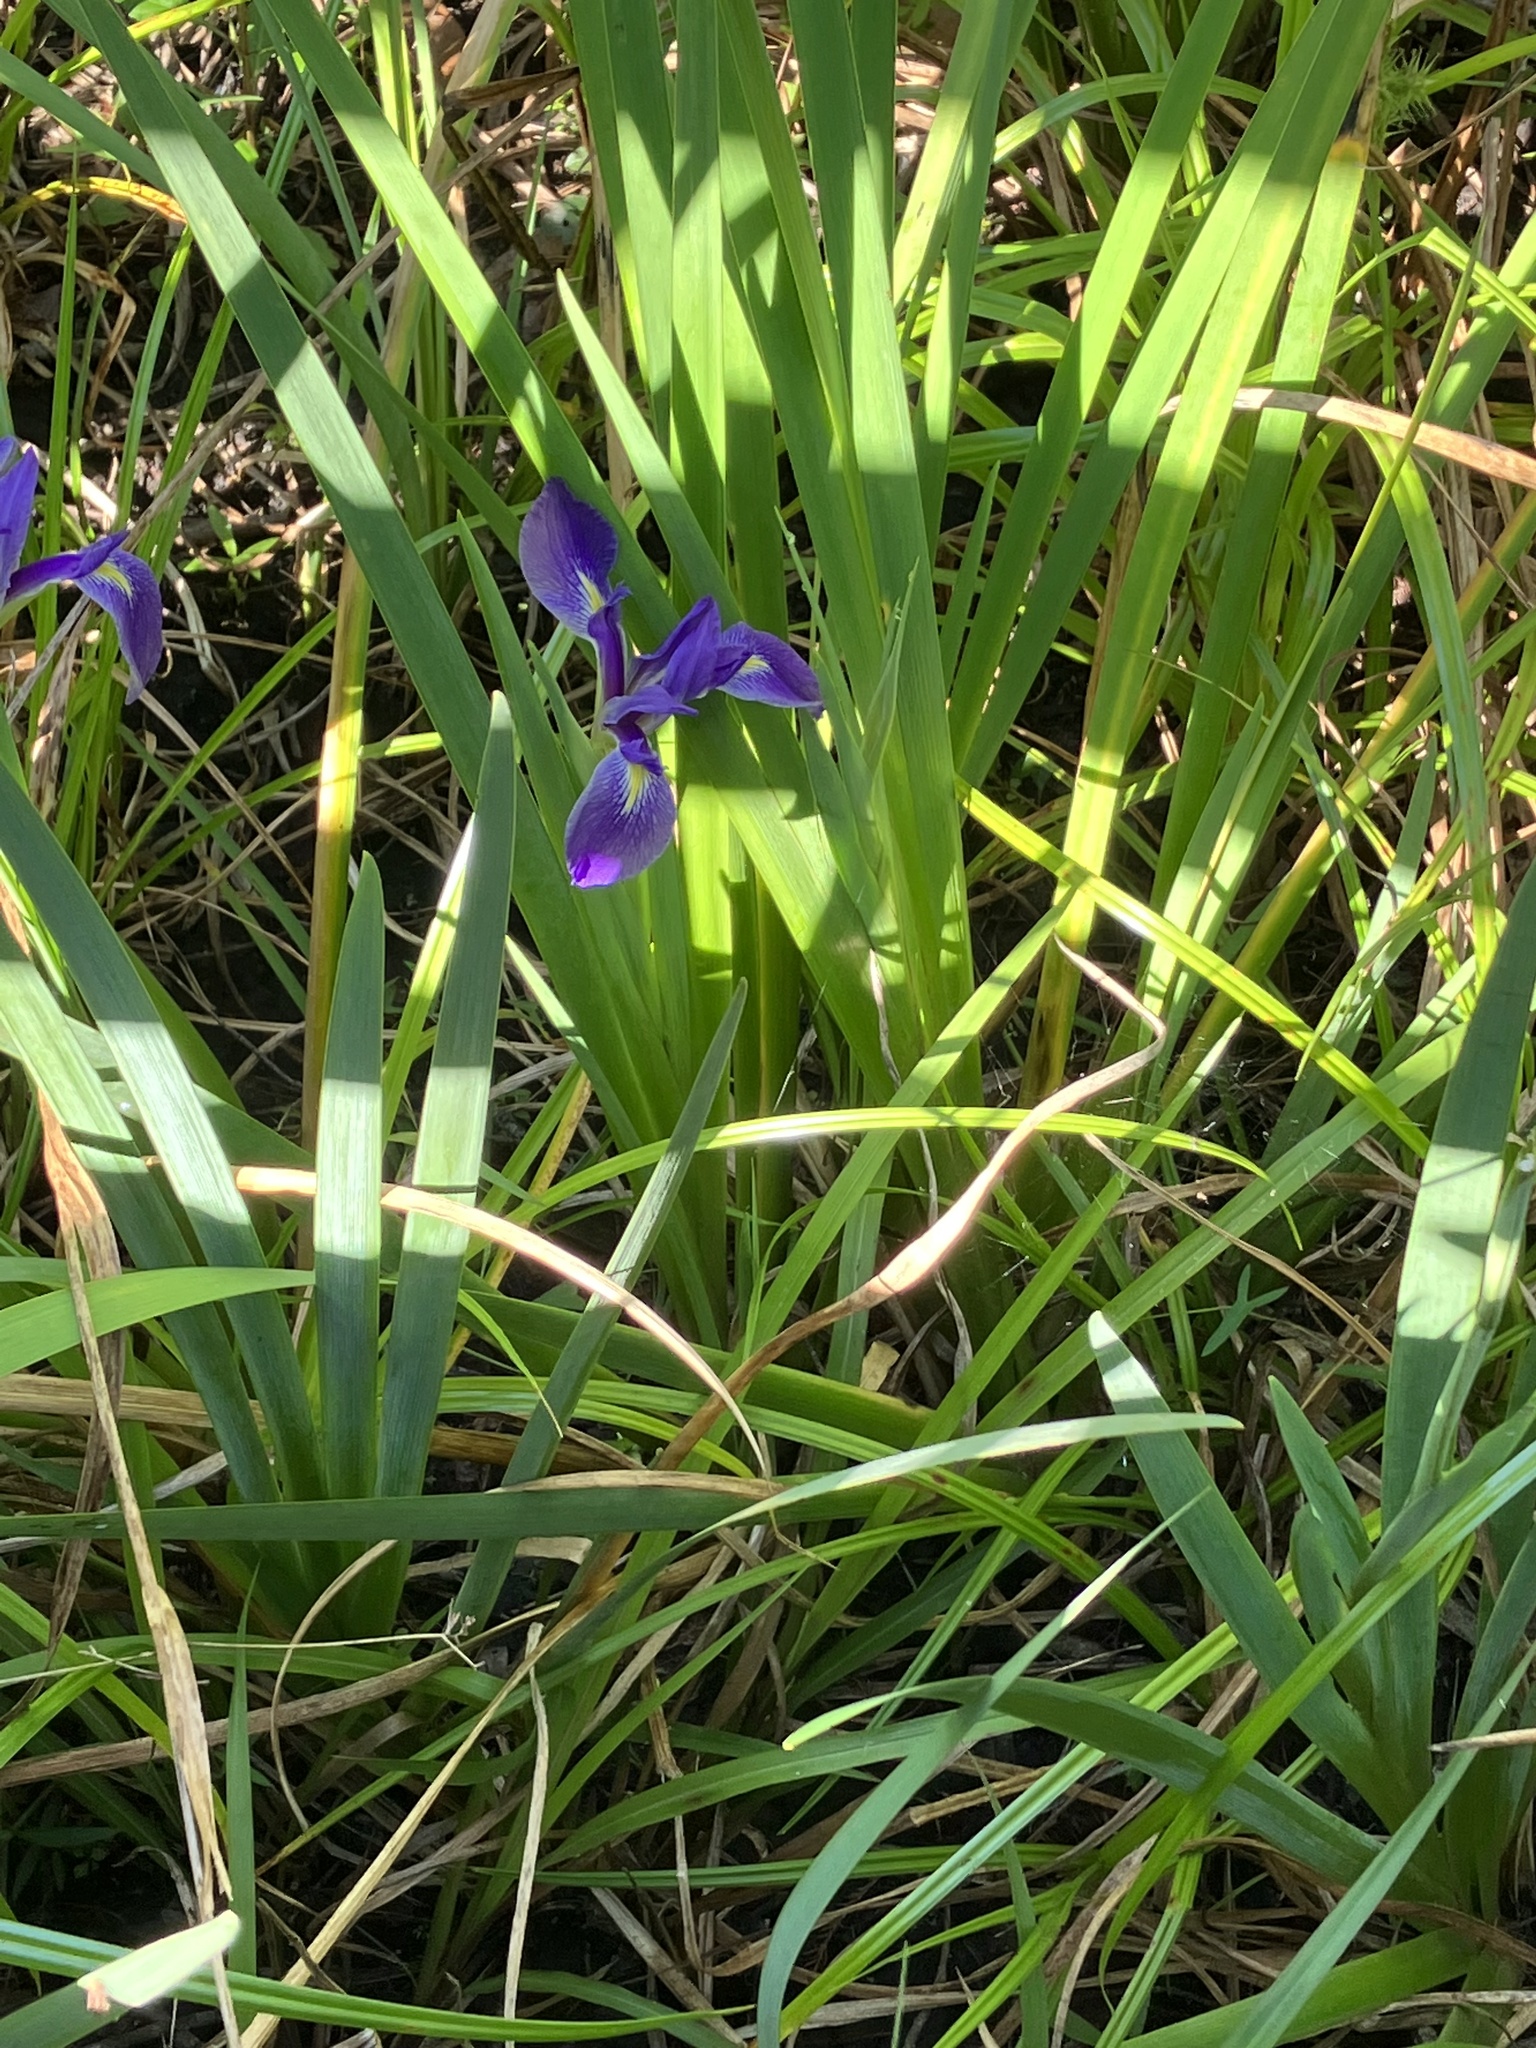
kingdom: Plantae
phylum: Tracheophyta
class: Liliopsida
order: Asparagales
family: Iridaceae
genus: Iris
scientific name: Iris savannarum
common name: Prairie iris
